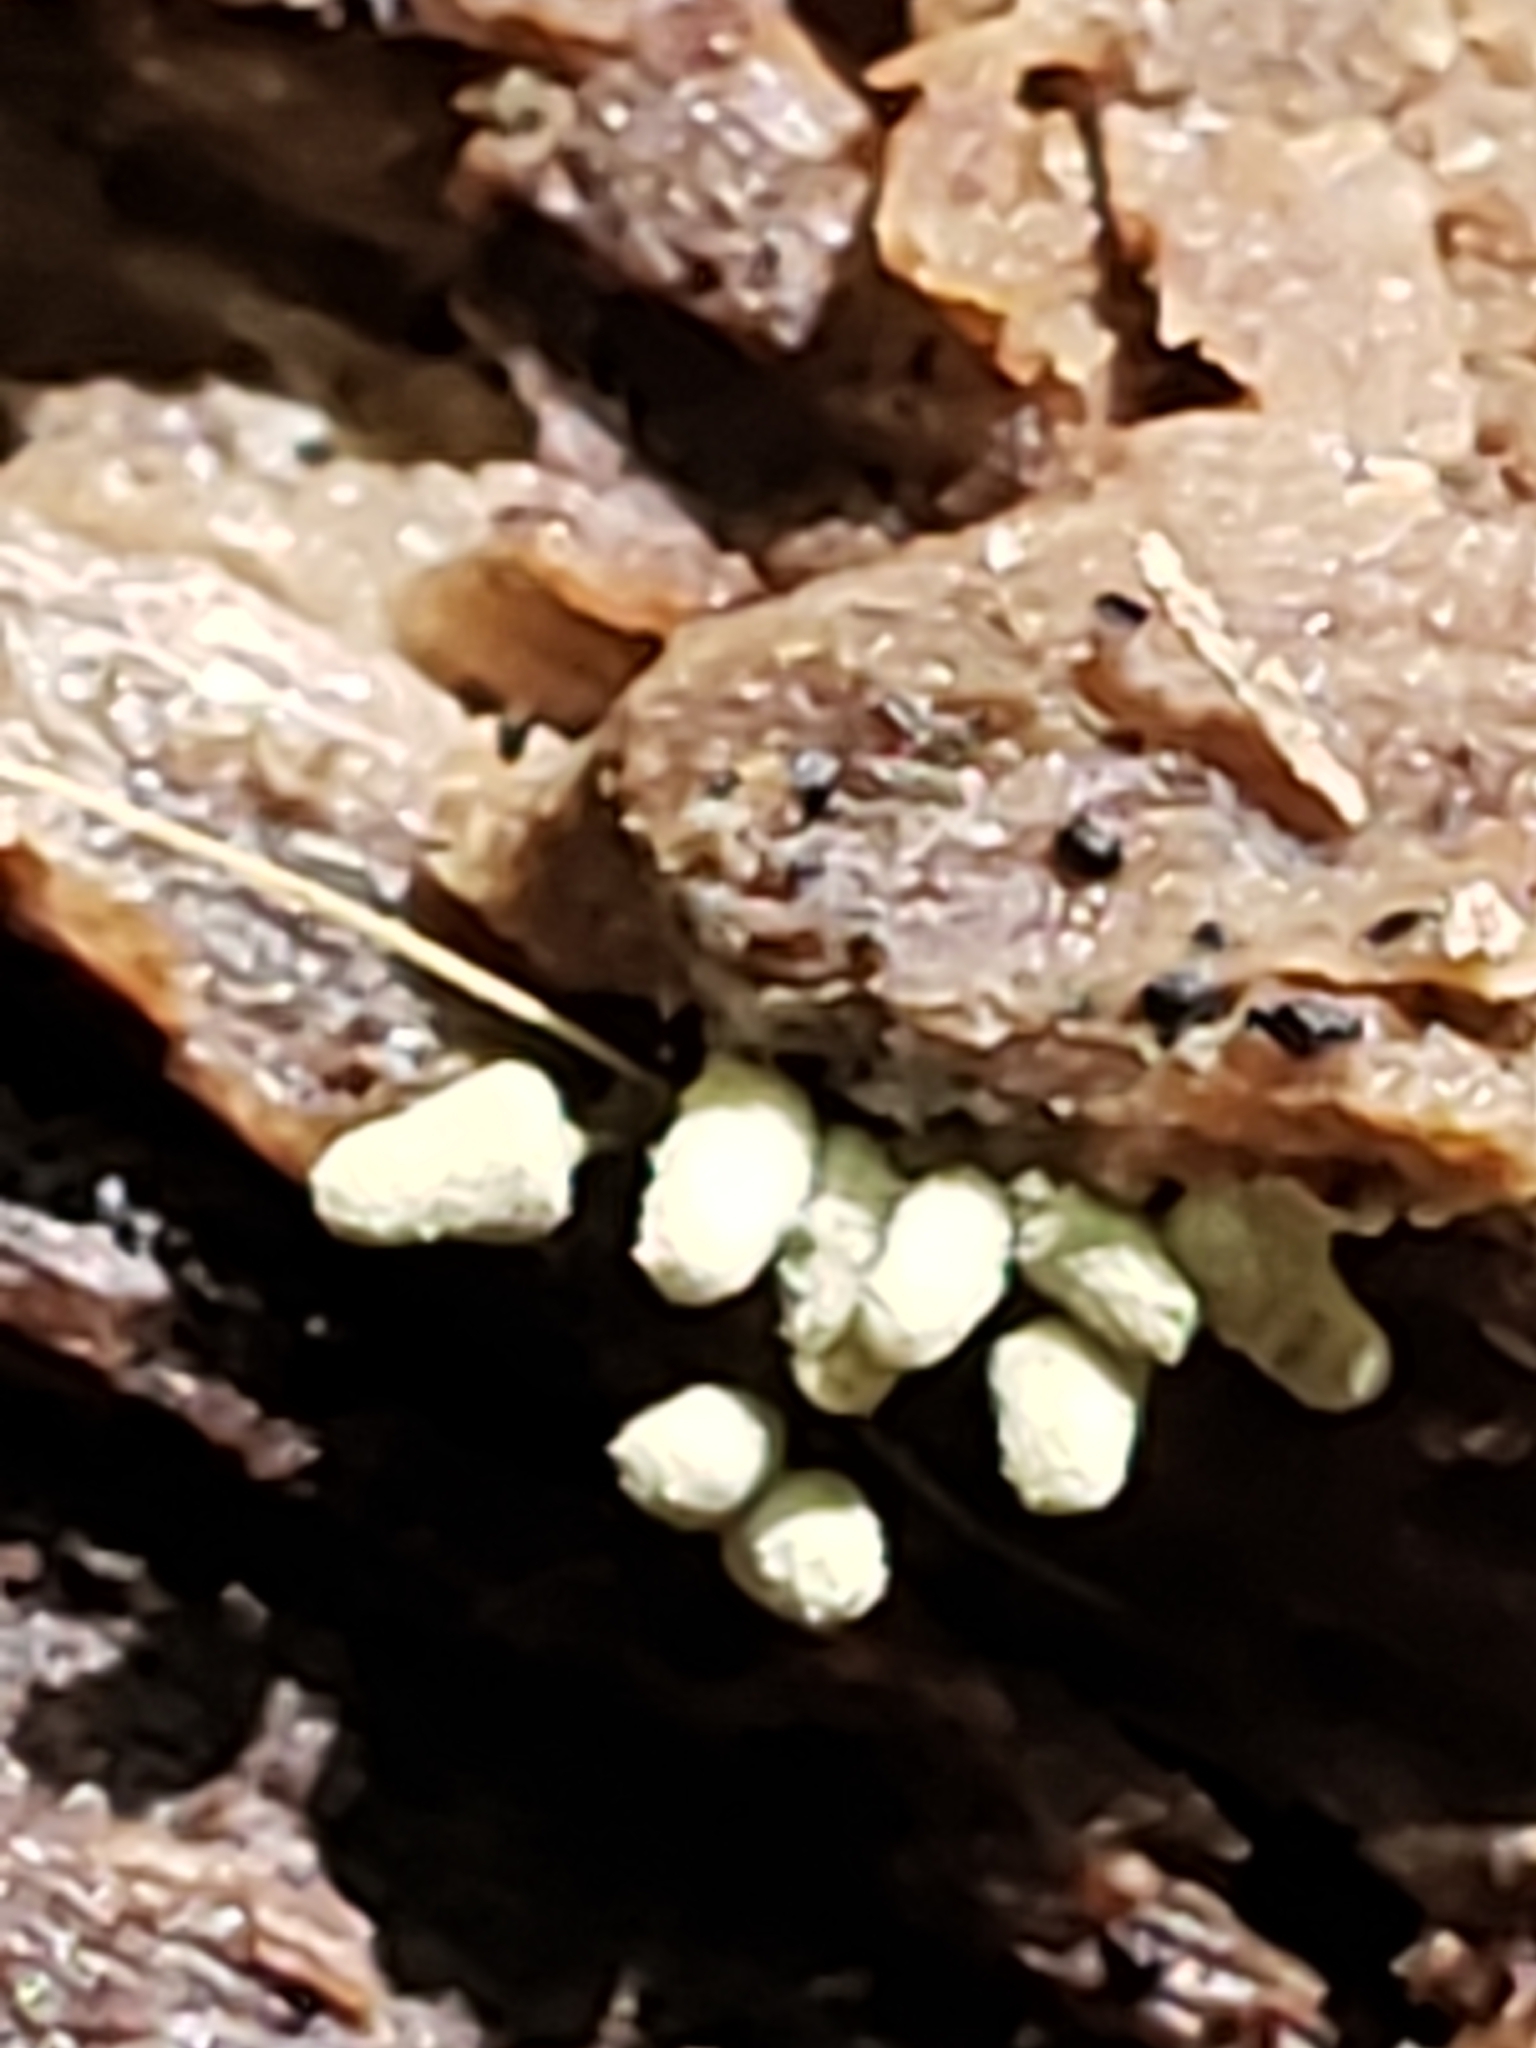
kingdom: Protozoa
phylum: Mycetozoa
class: Myxomycetes
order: Trichiales
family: Arcyriaceae
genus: Arcyria
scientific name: Arcyria cinerea
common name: White carnival candy slime mold
